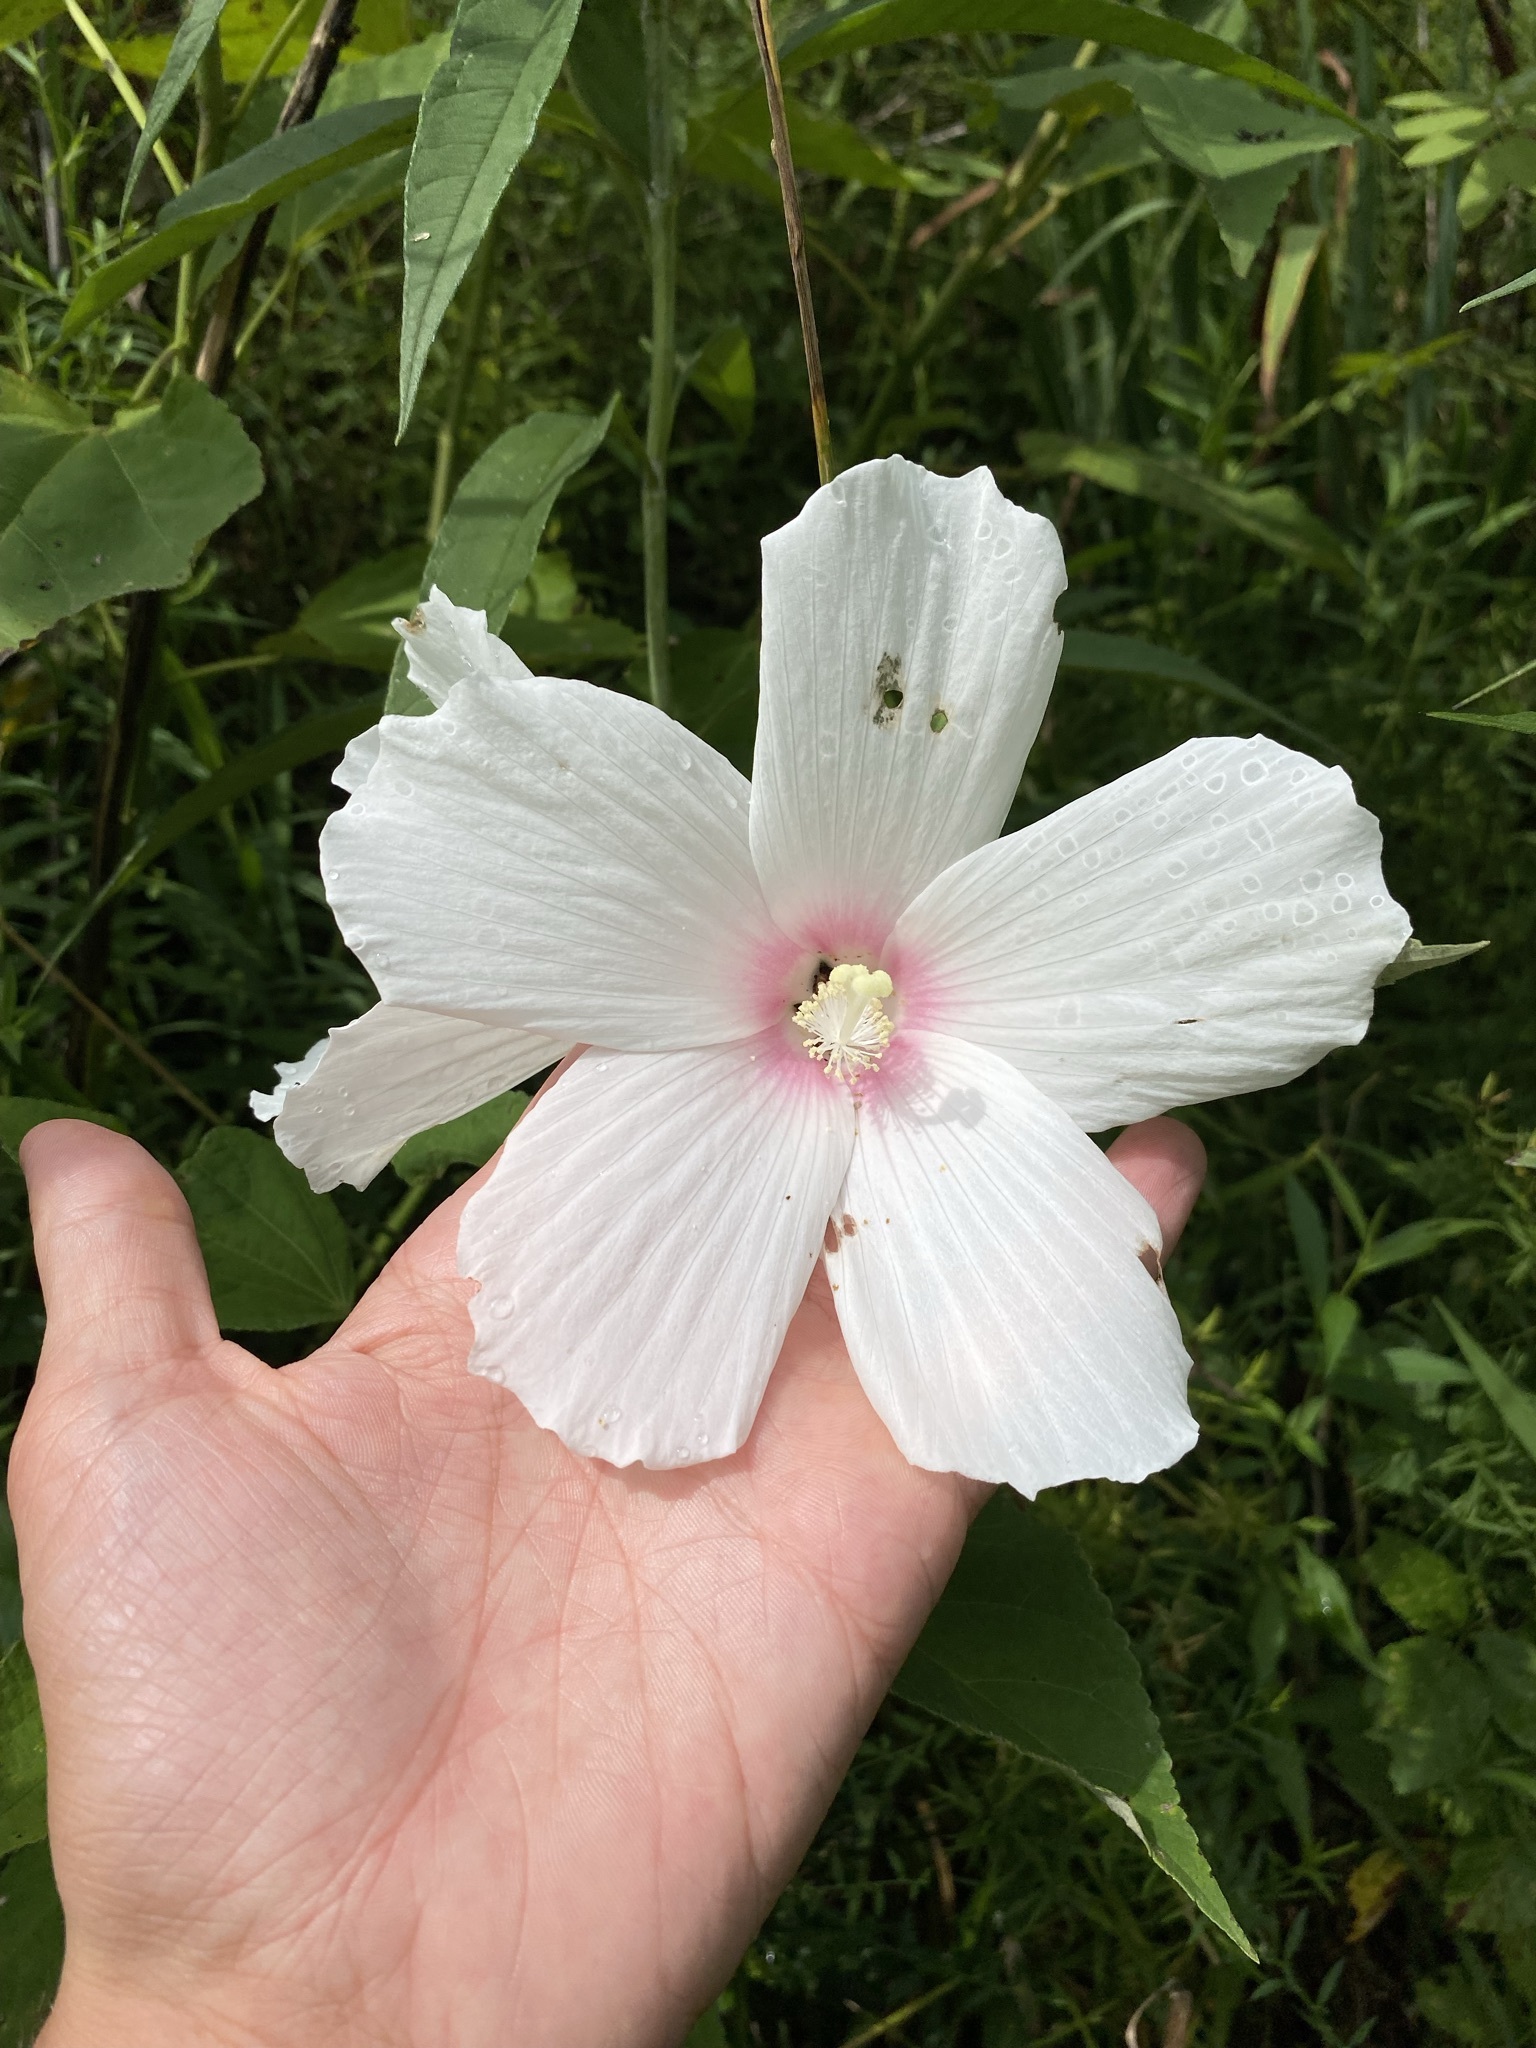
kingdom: Plantae
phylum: Tracheophyta
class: Magnoliopsida
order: Malvales
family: Malvaceae
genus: Hibiscus
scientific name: Hibiscus moscheutos
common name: Common rose-mallow
